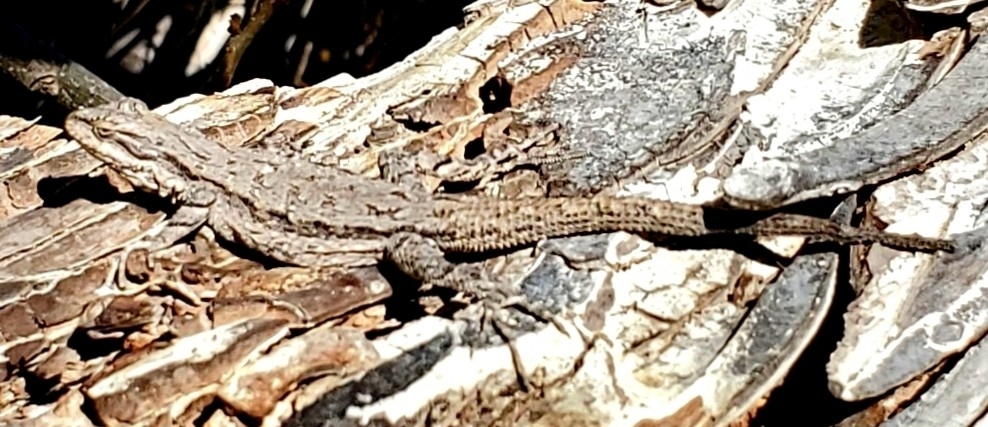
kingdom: Animalia
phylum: Chordata
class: Squamata
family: Phrynosomatidae
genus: Urosaurus
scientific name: Urosaurus ornatus
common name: Ornate tree lizard
